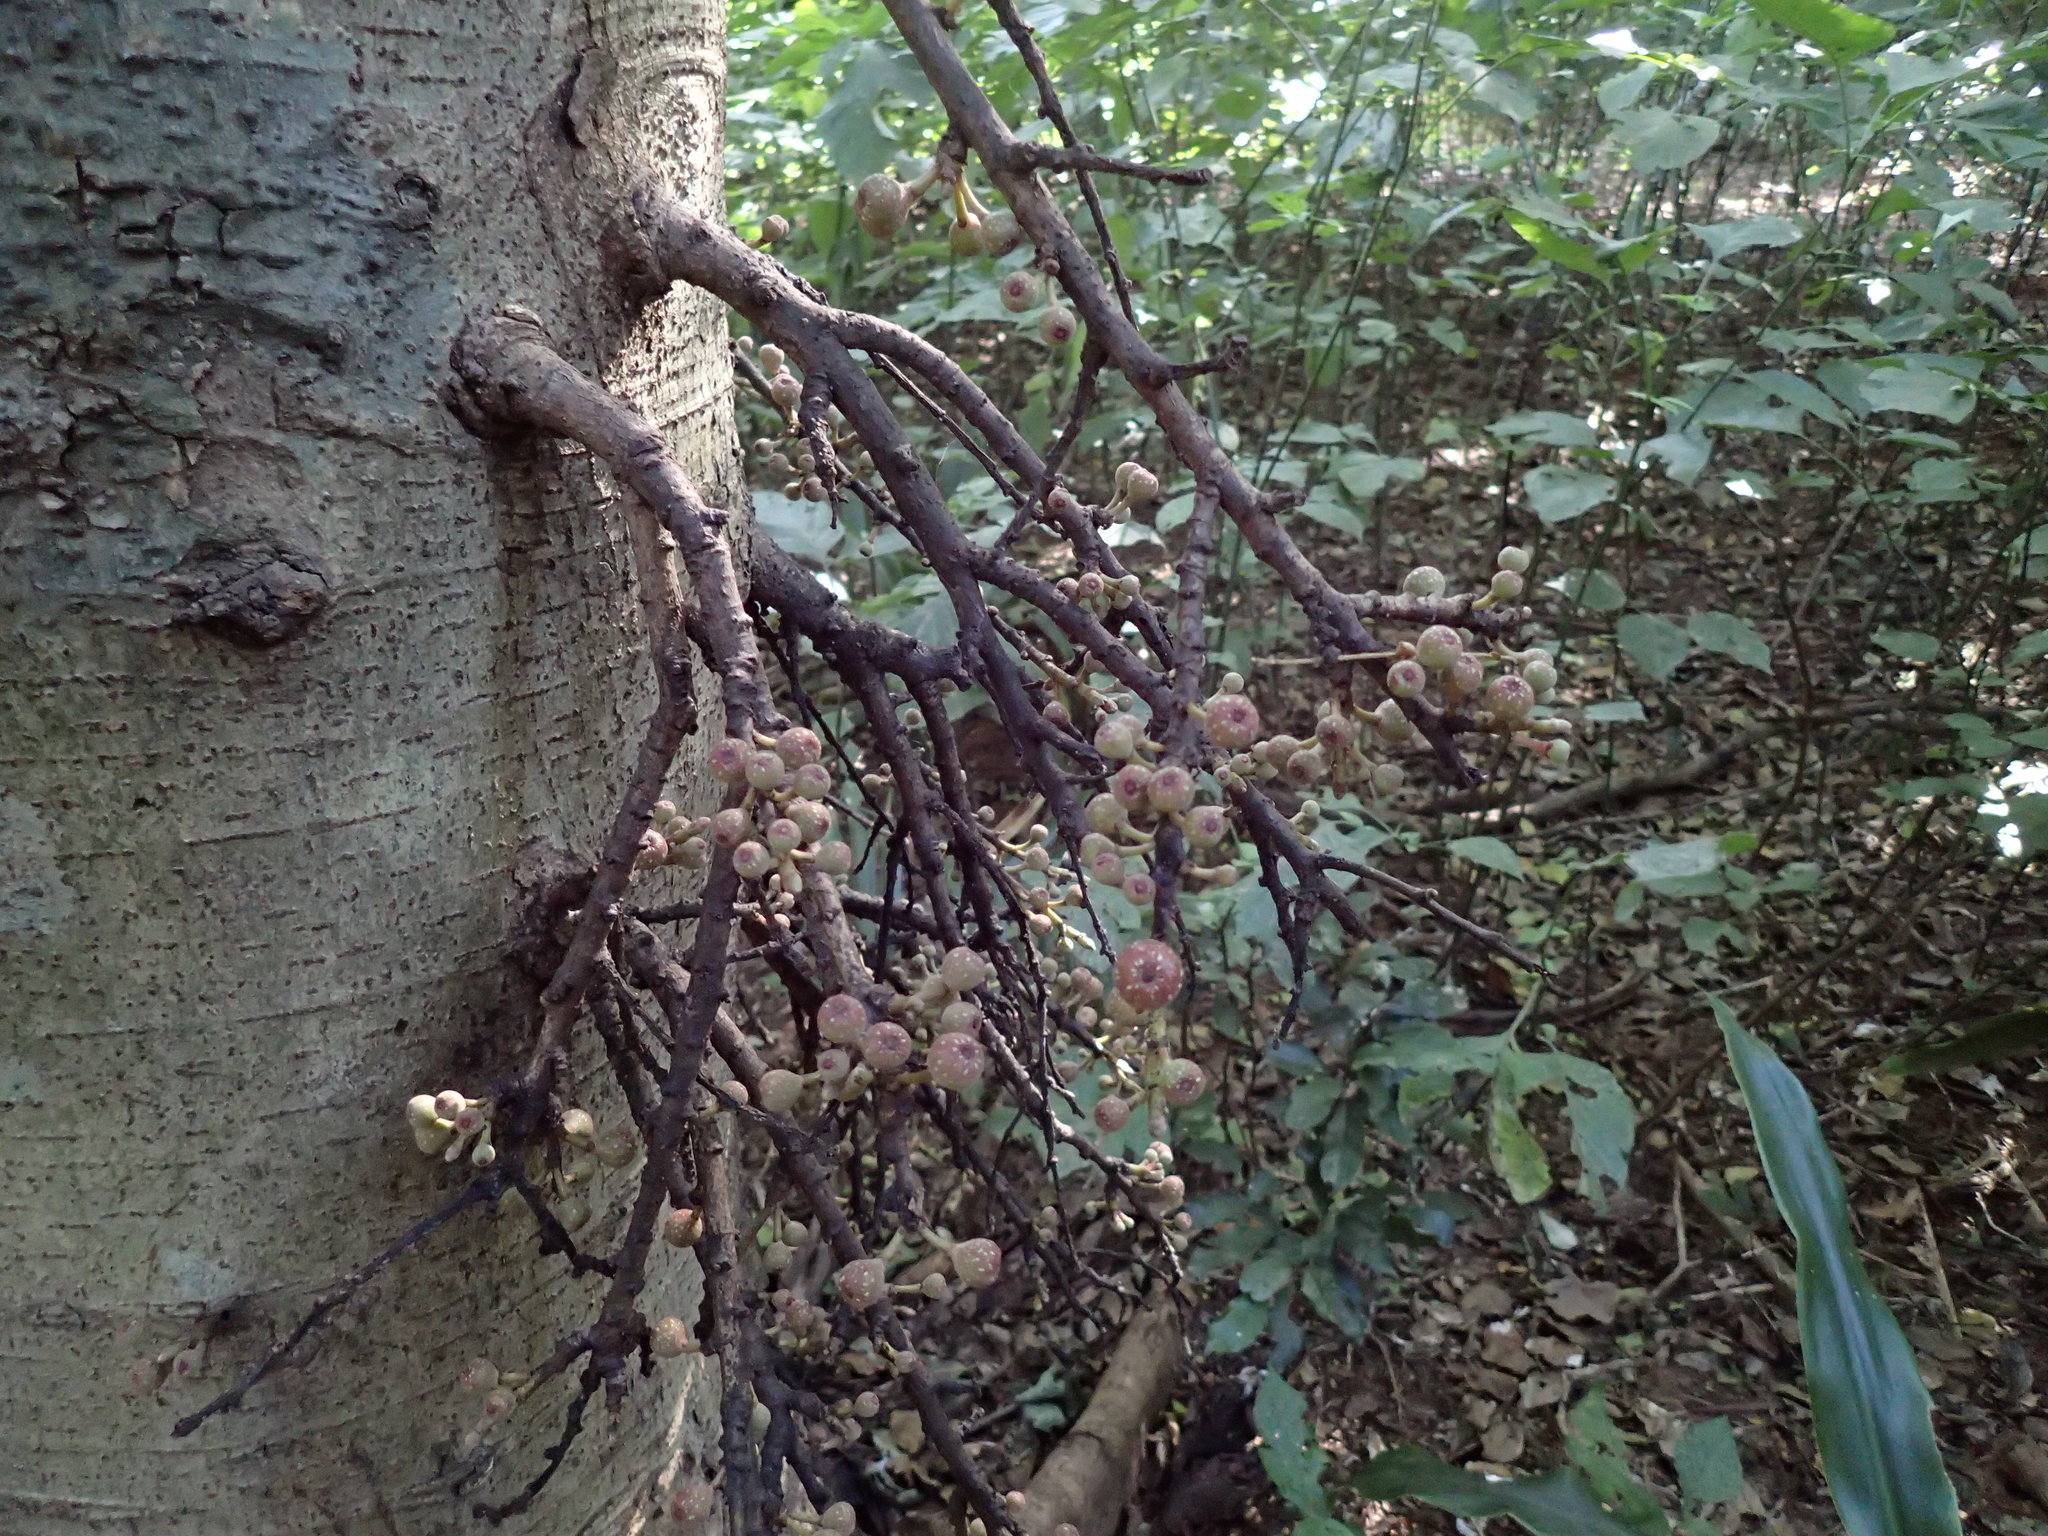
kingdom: Plantae
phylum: Tracheophyta
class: Magnoliopsida
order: Rosales
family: Moraceae
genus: Ficus
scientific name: Ficus sur
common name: Cape fig
